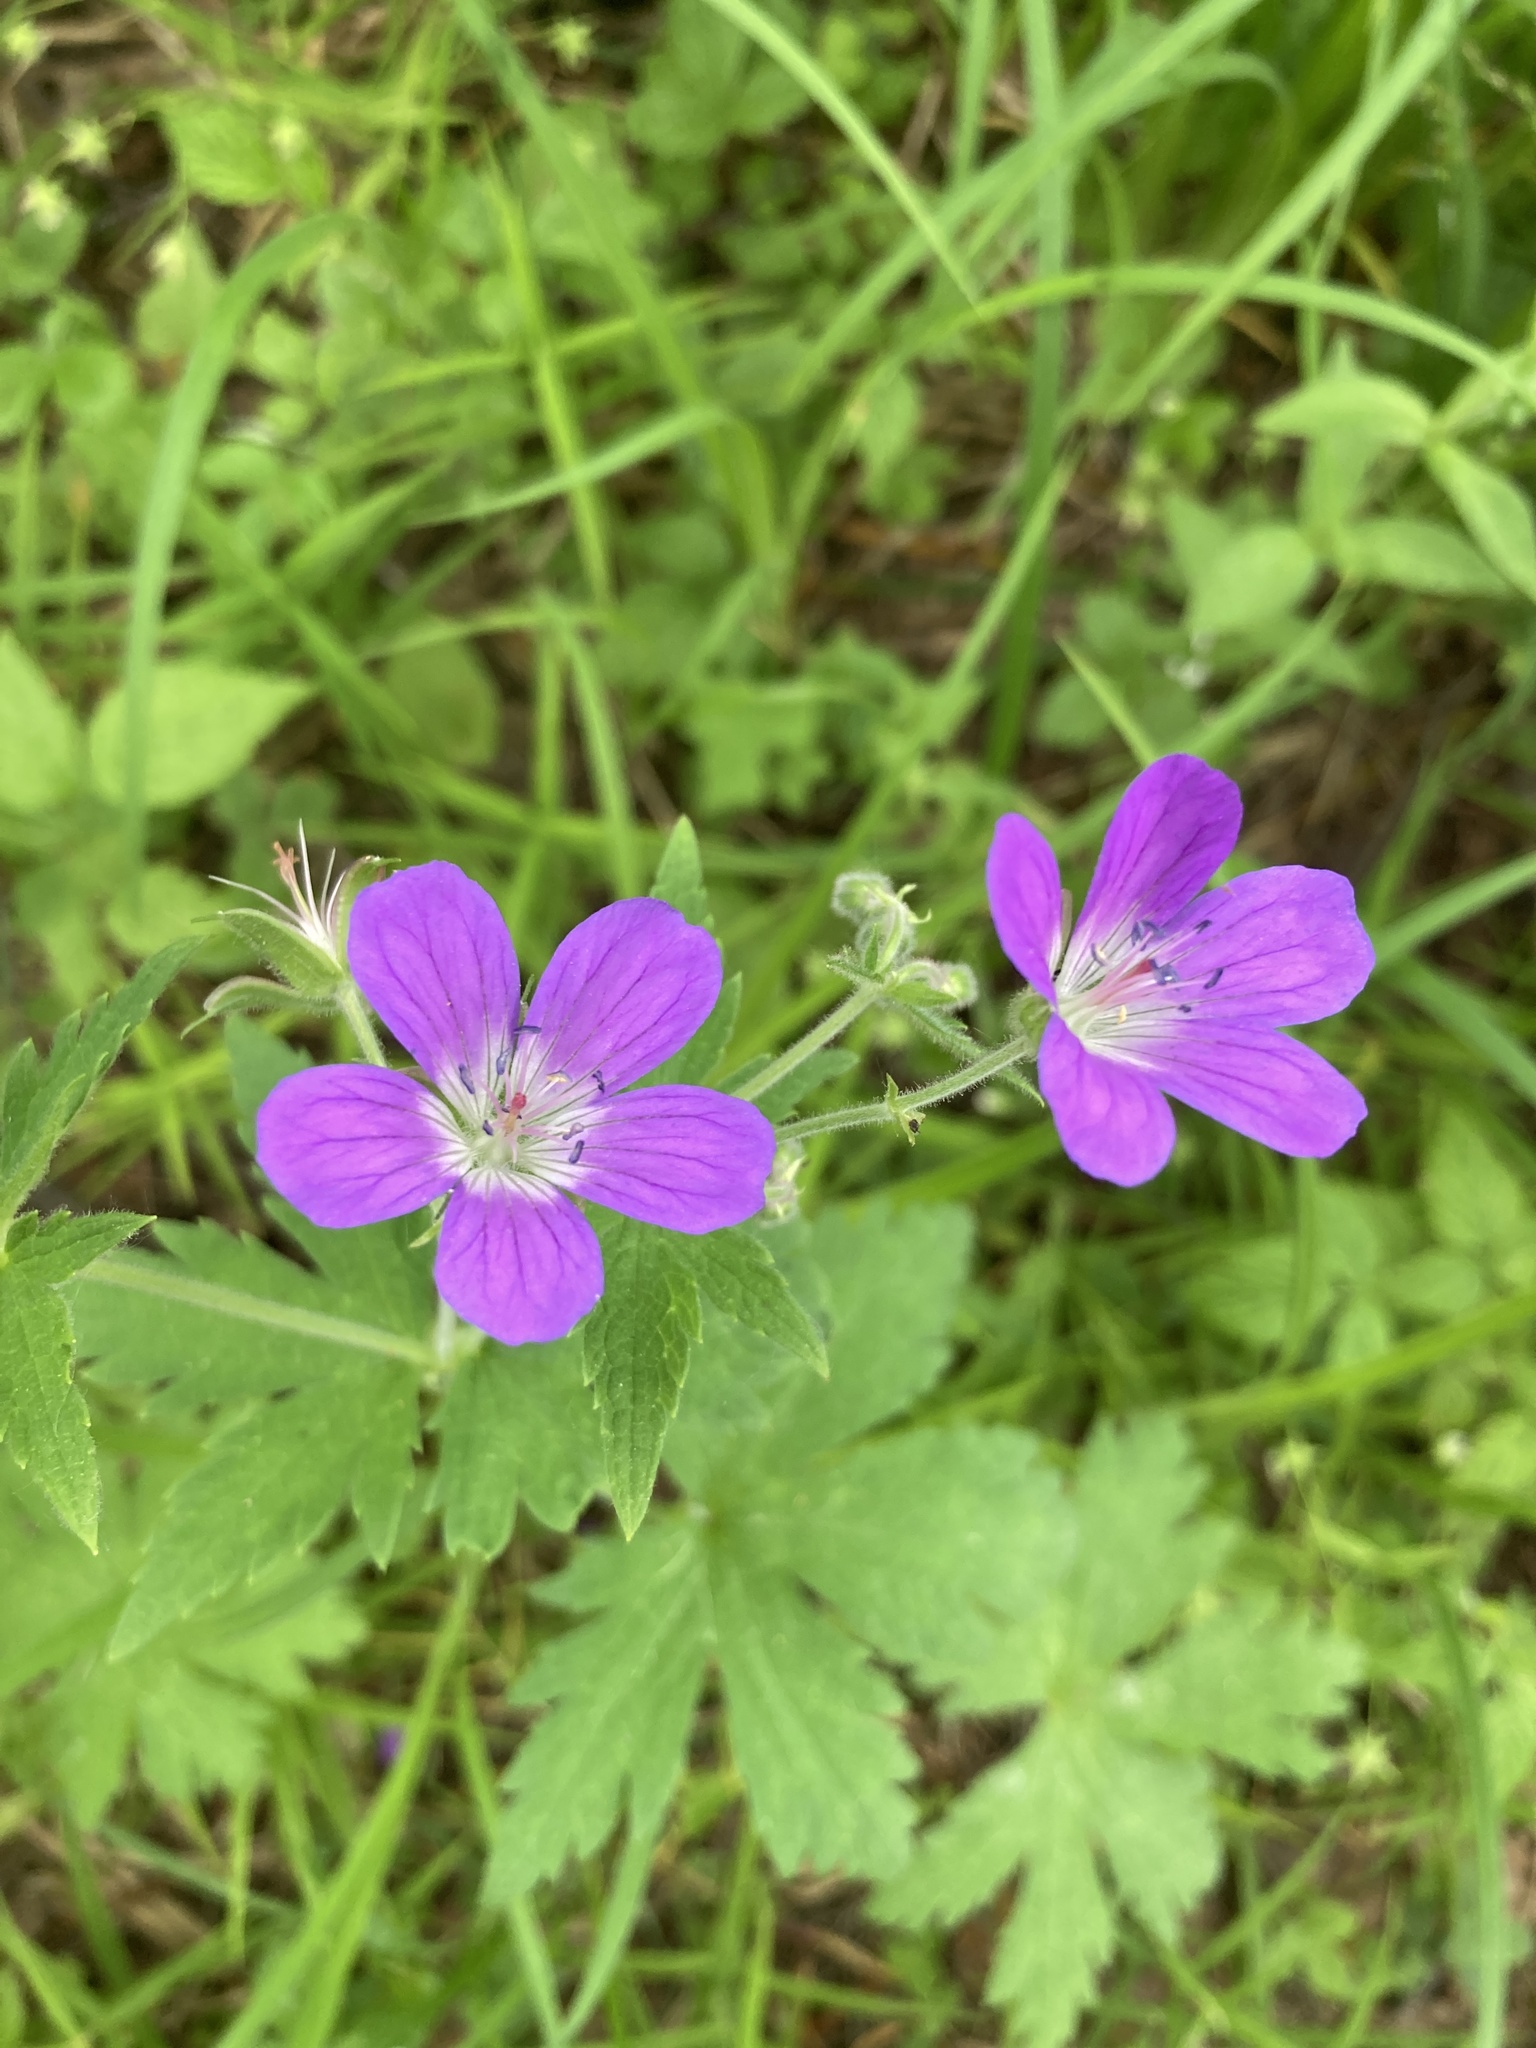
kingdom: Plantae
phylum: Tracheophyta
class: Magnoliopsida
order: Geraniales
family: Geraniaceae
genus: Geranium
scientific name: Geranium sylvaticum
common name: Wood crane's-bill
